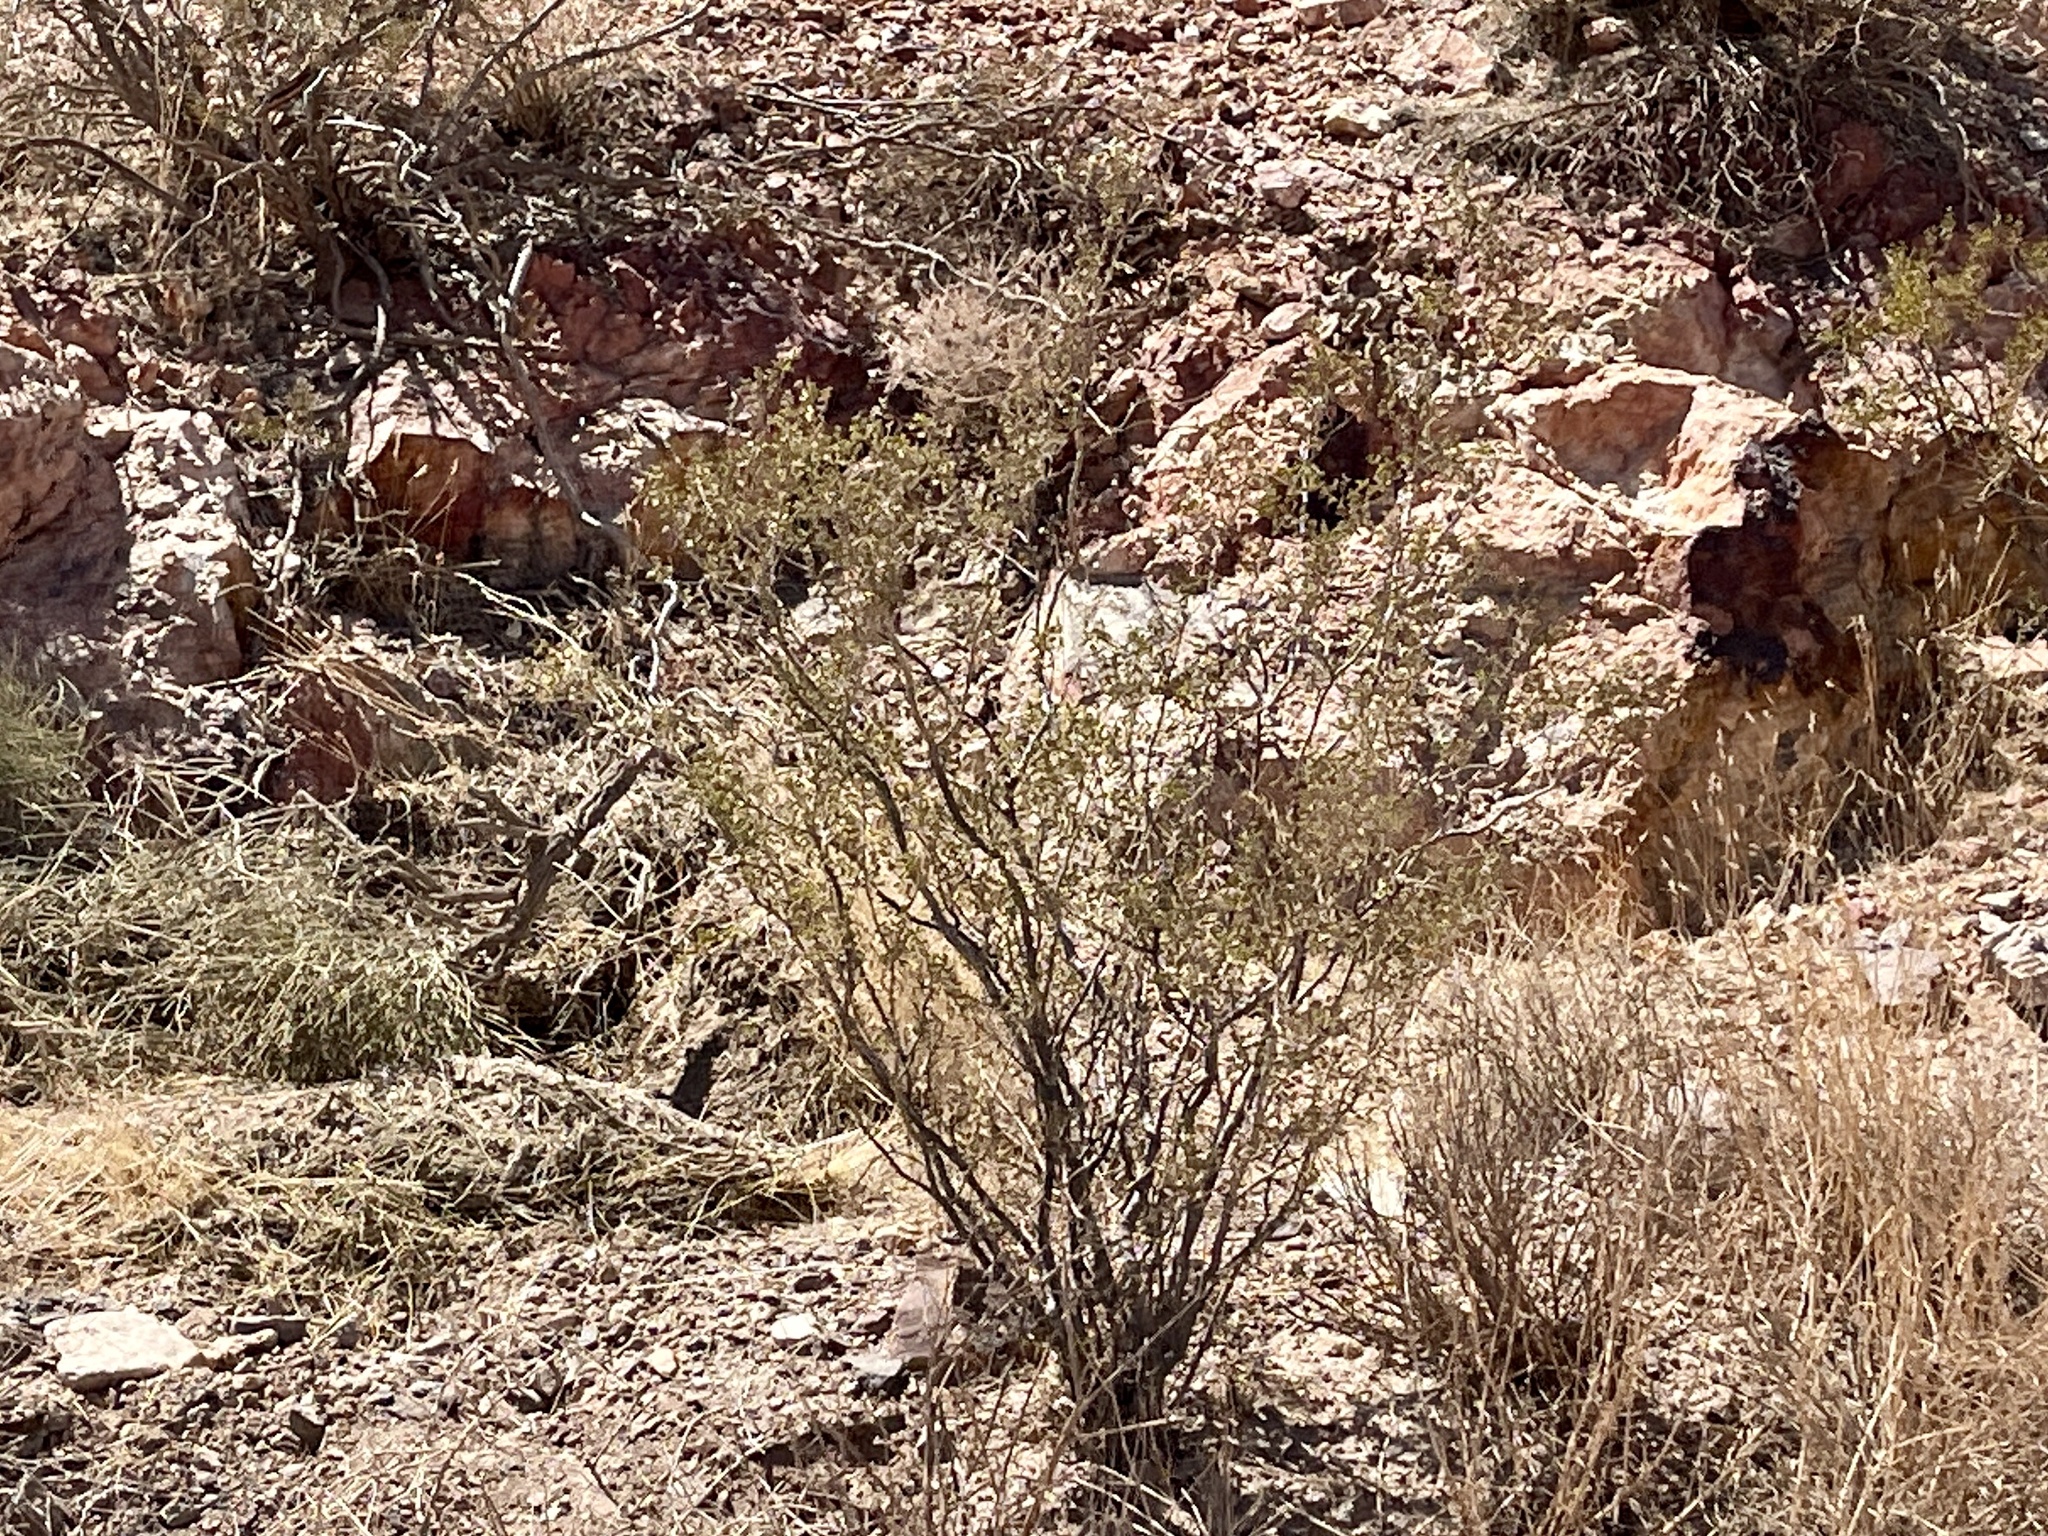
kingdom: Plantae
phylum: Tracheophyta
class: Magnoliopsida
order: Zygophyllales
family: Zygophyllaceae
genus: Larrea
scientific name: Larrea tridentata
